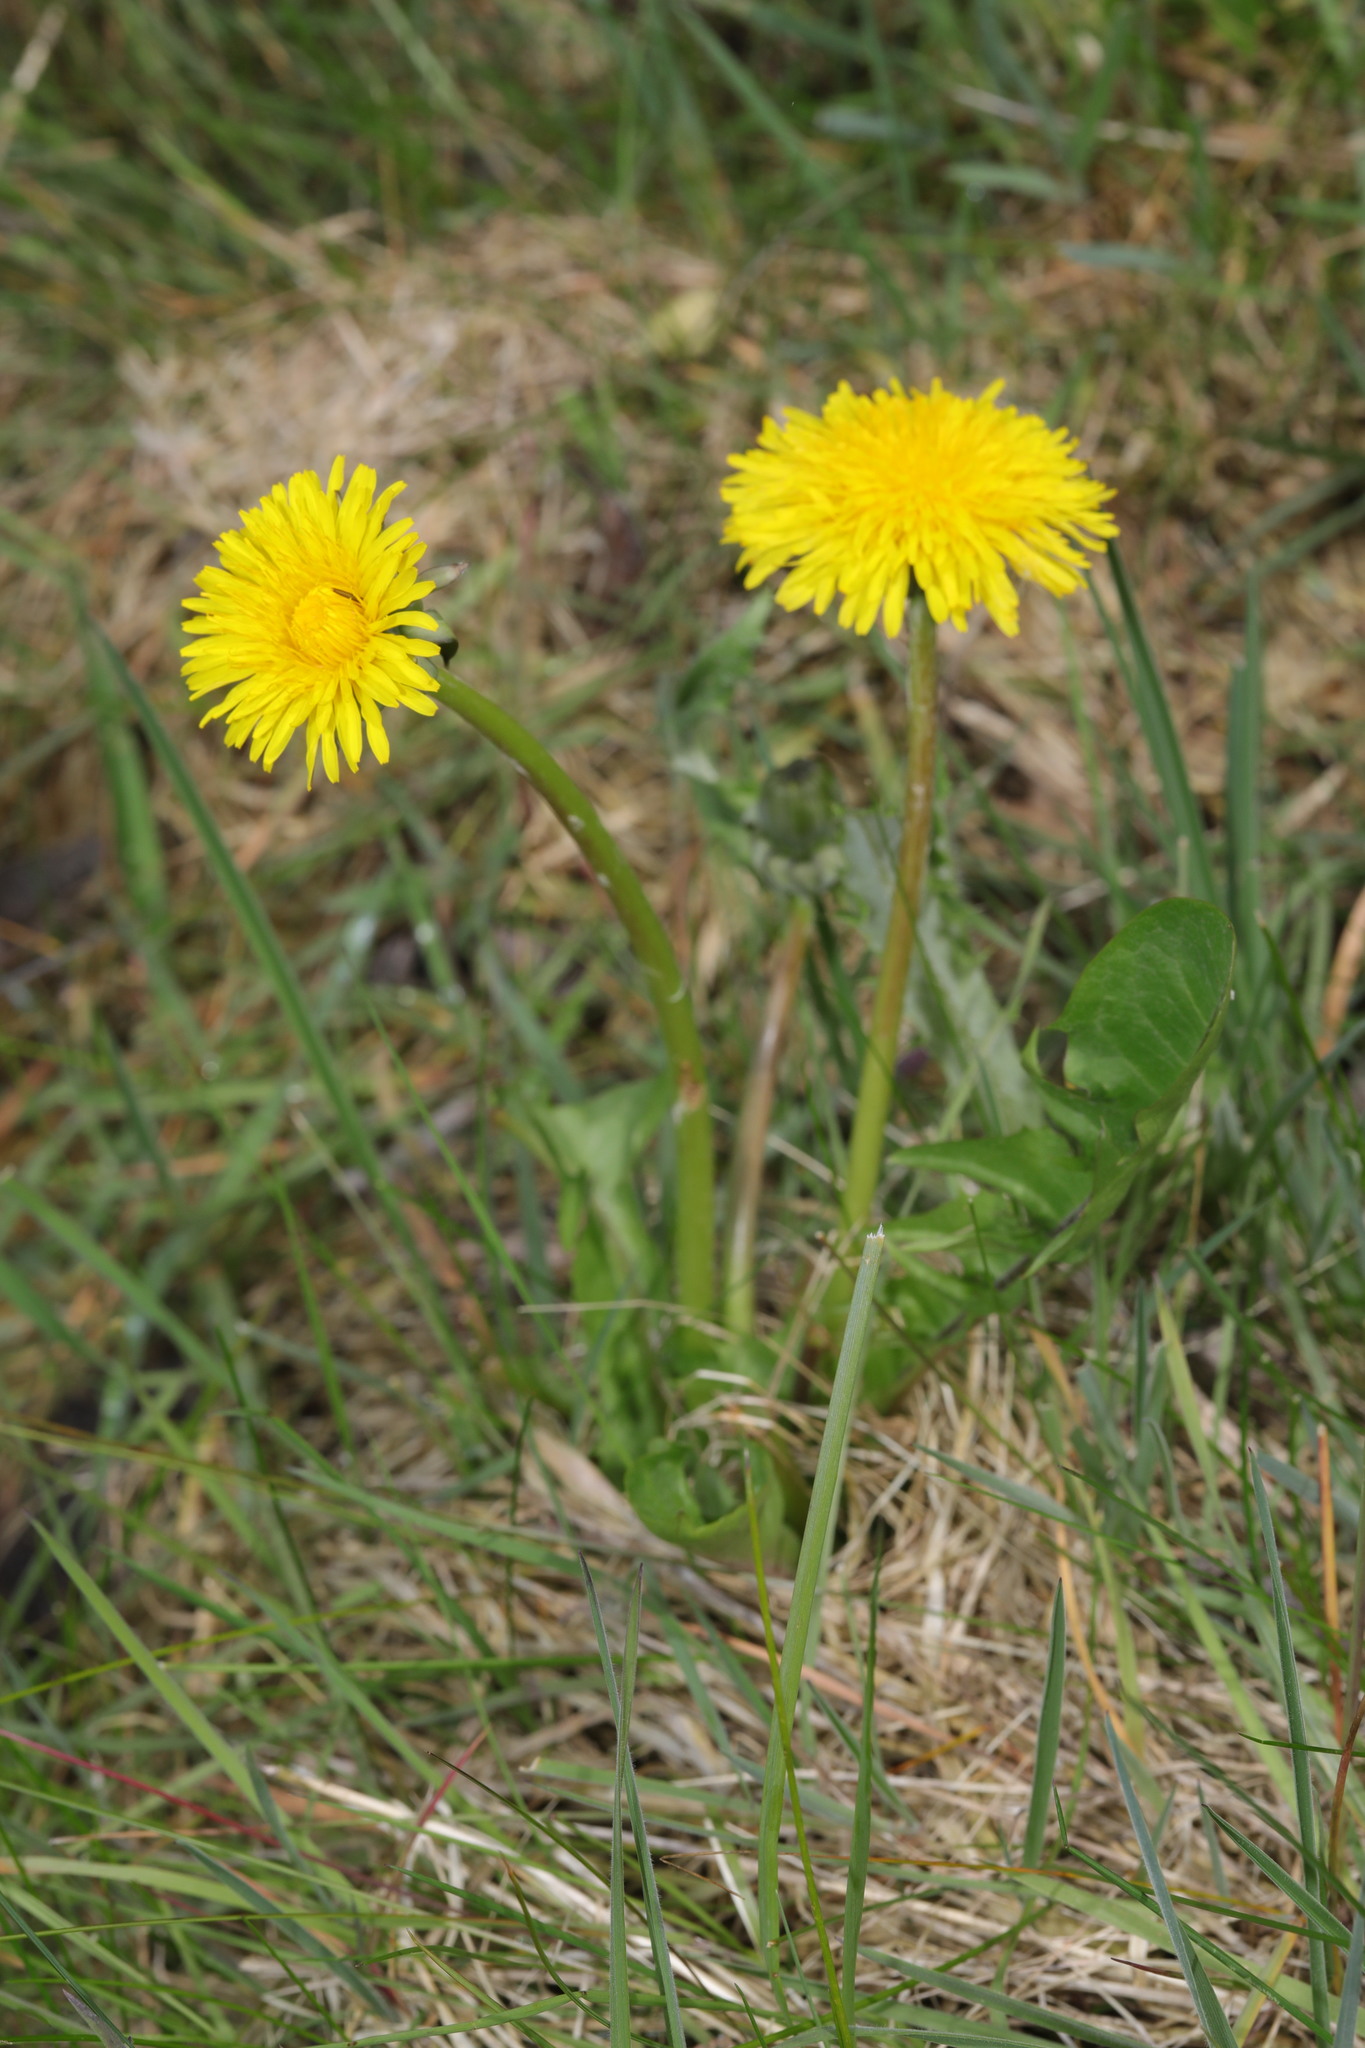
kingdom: Plantae
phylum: Tracheophyta
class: Magnoliopsida
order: Asterales
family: Asteraceae
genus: Taraxacum
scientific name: Taraxacum officinale
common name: Common dandelion
